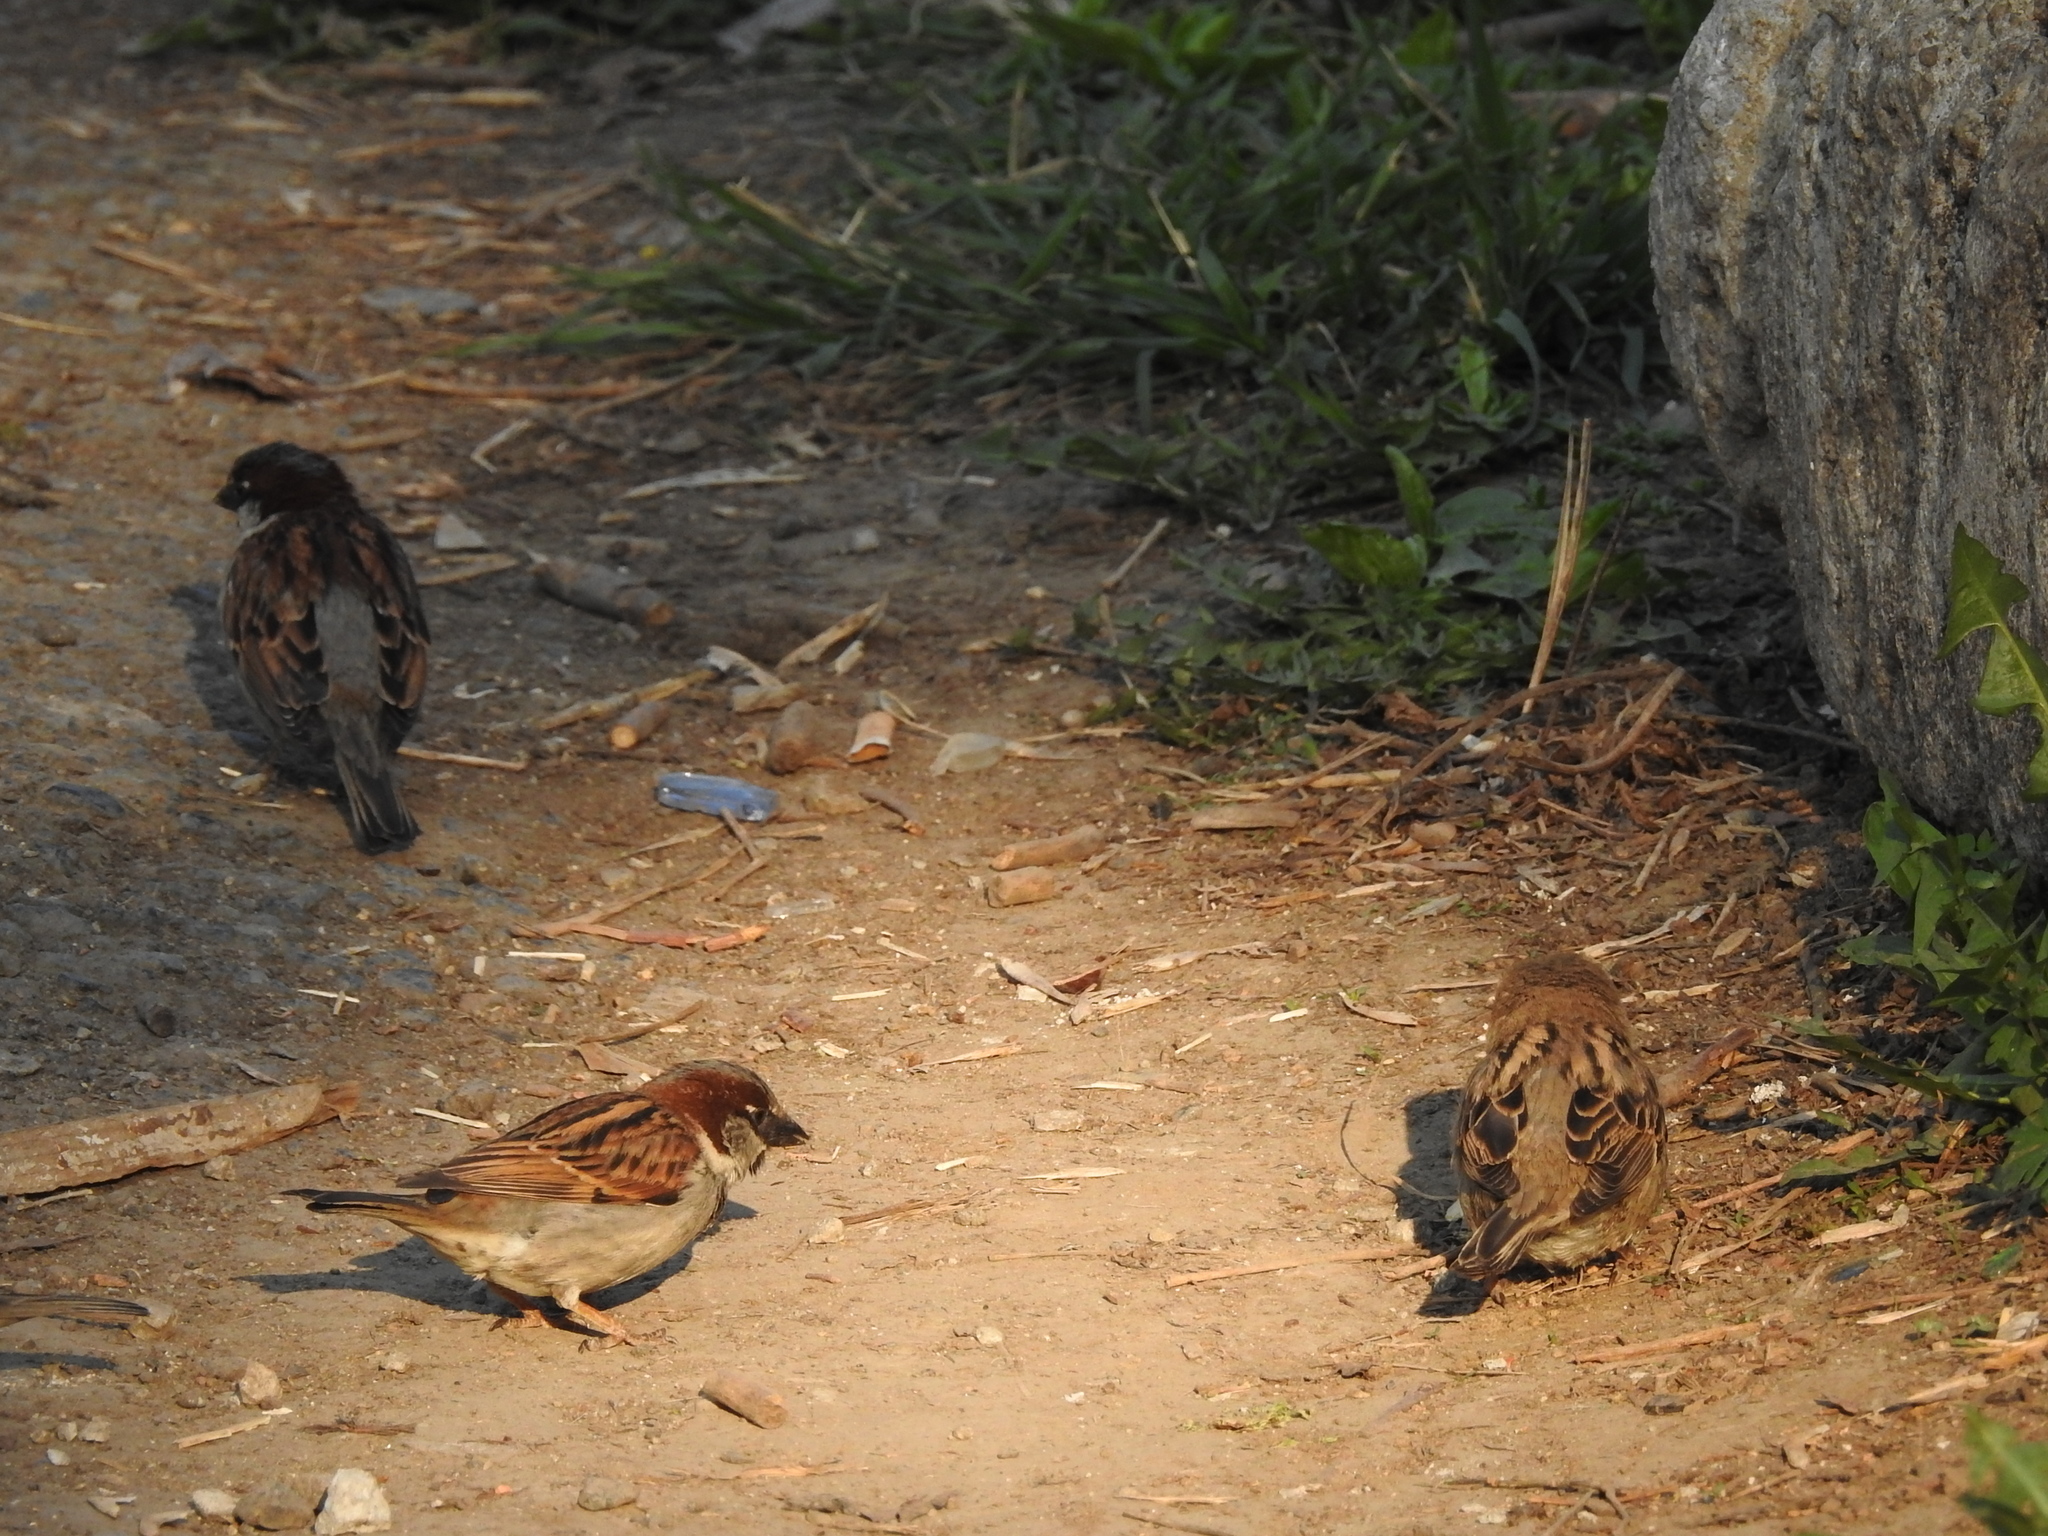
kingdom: Animalia
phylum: Chordata
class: Aves
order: Passeriformes
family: Passeridae
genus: Passer
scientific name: Passer domesticus
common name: House sparrow
